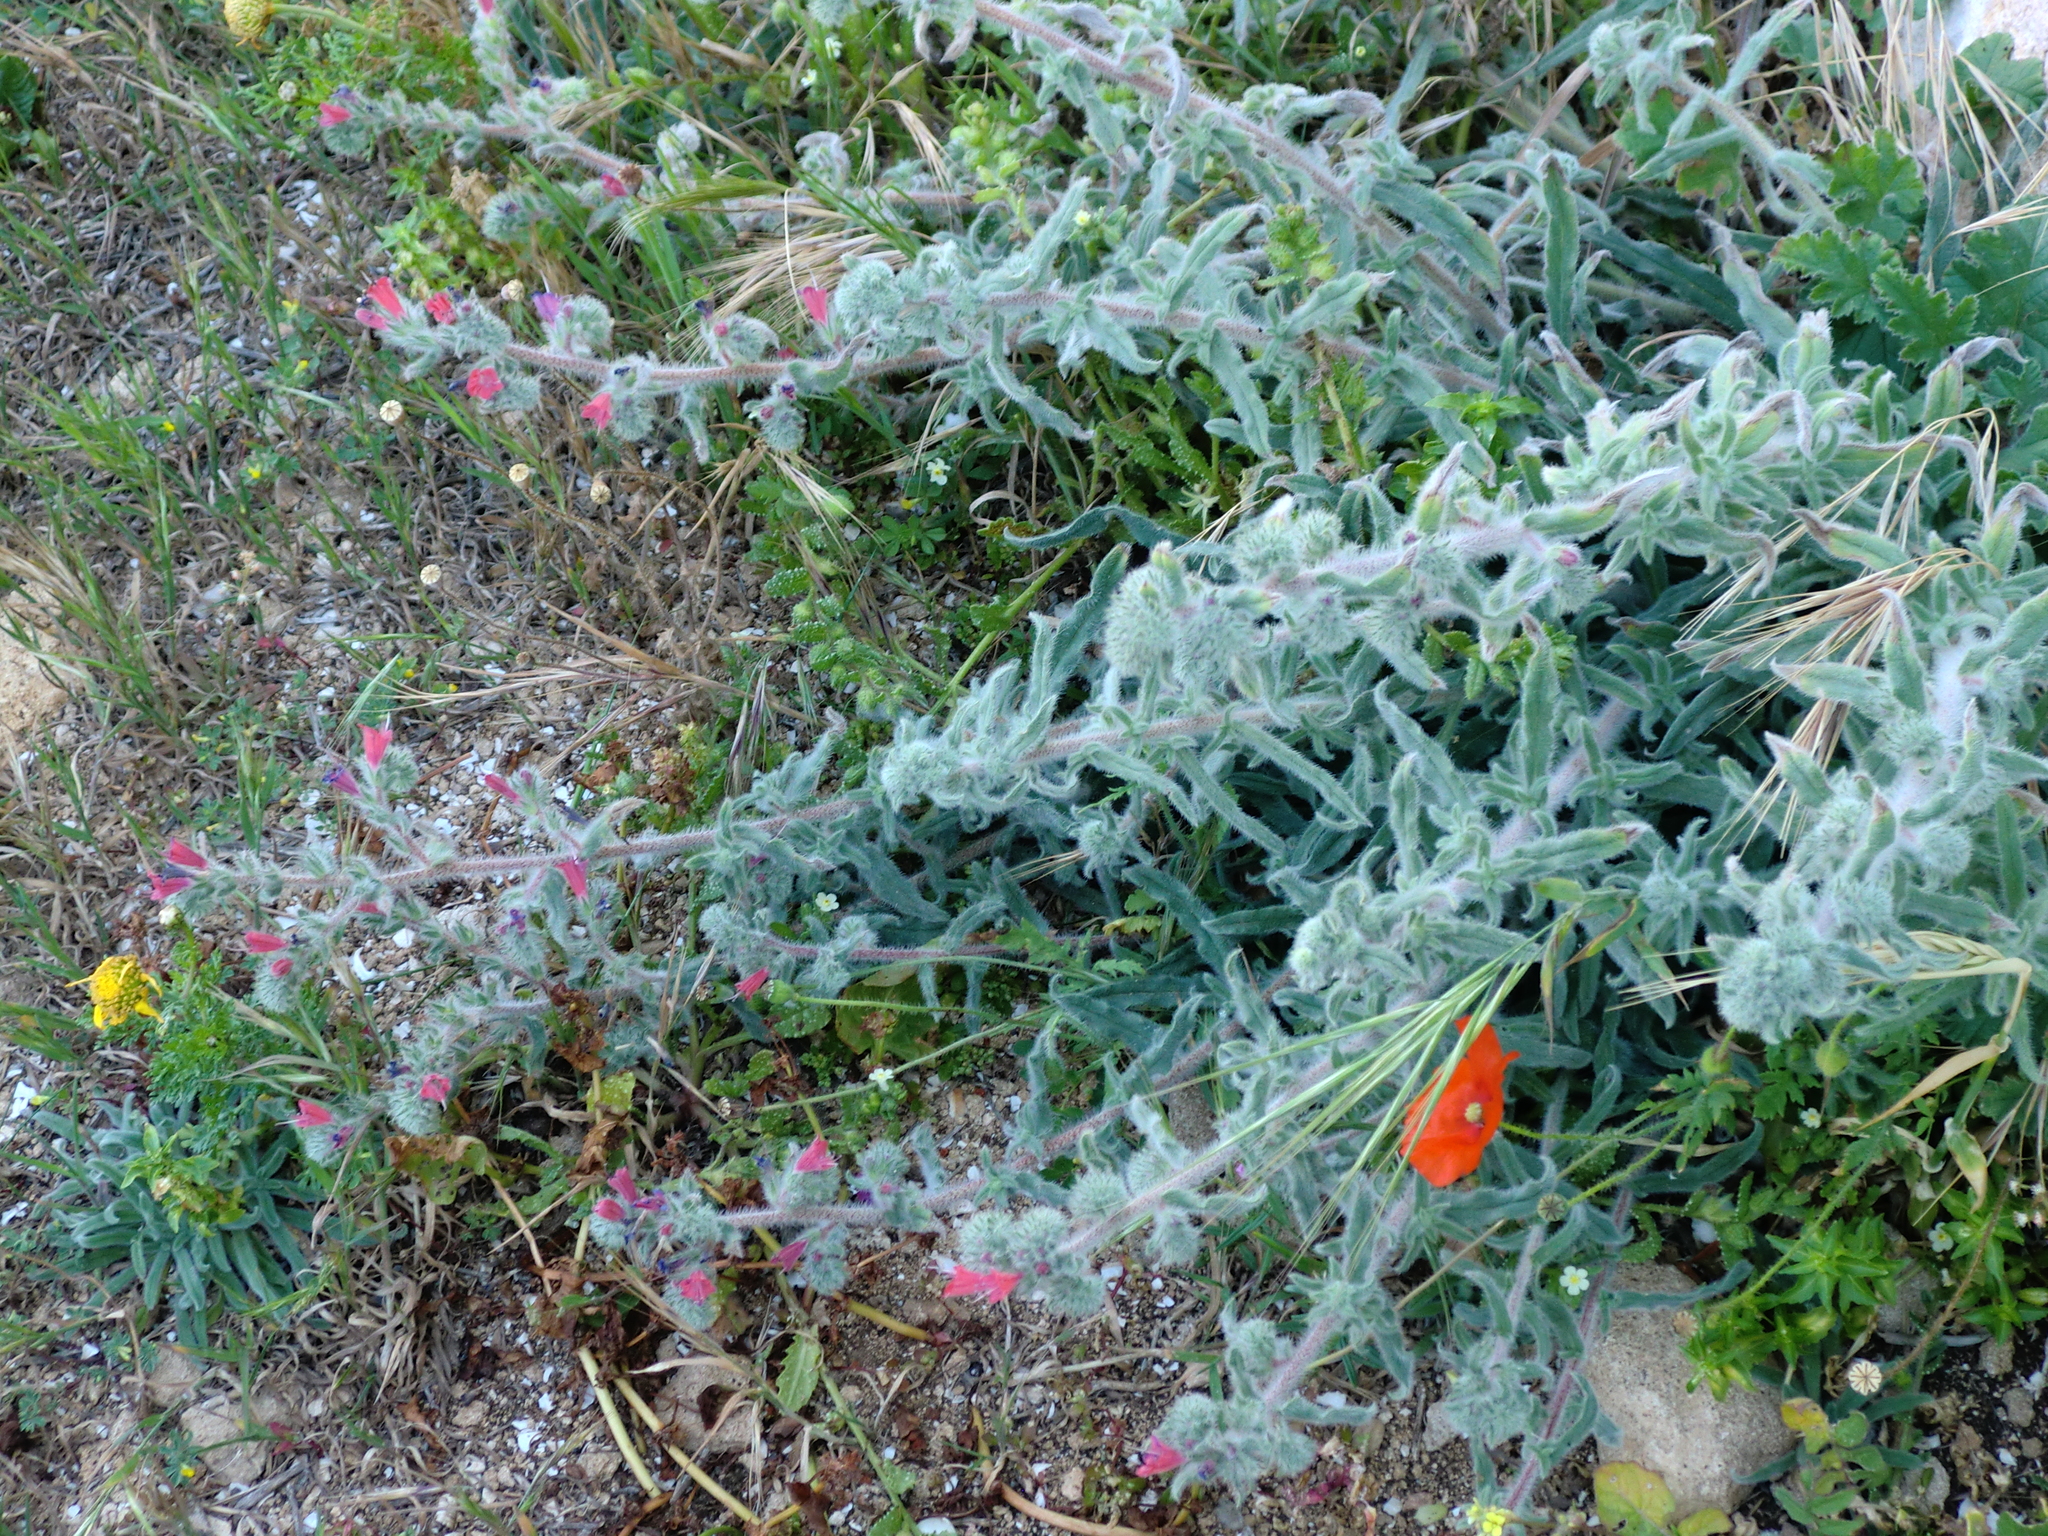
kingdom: Plantae
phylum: Tracheophyta
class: Magnoliopsida
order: Boraginales
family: Boraginaceae
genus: Echium
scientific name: Echium angustifolium
